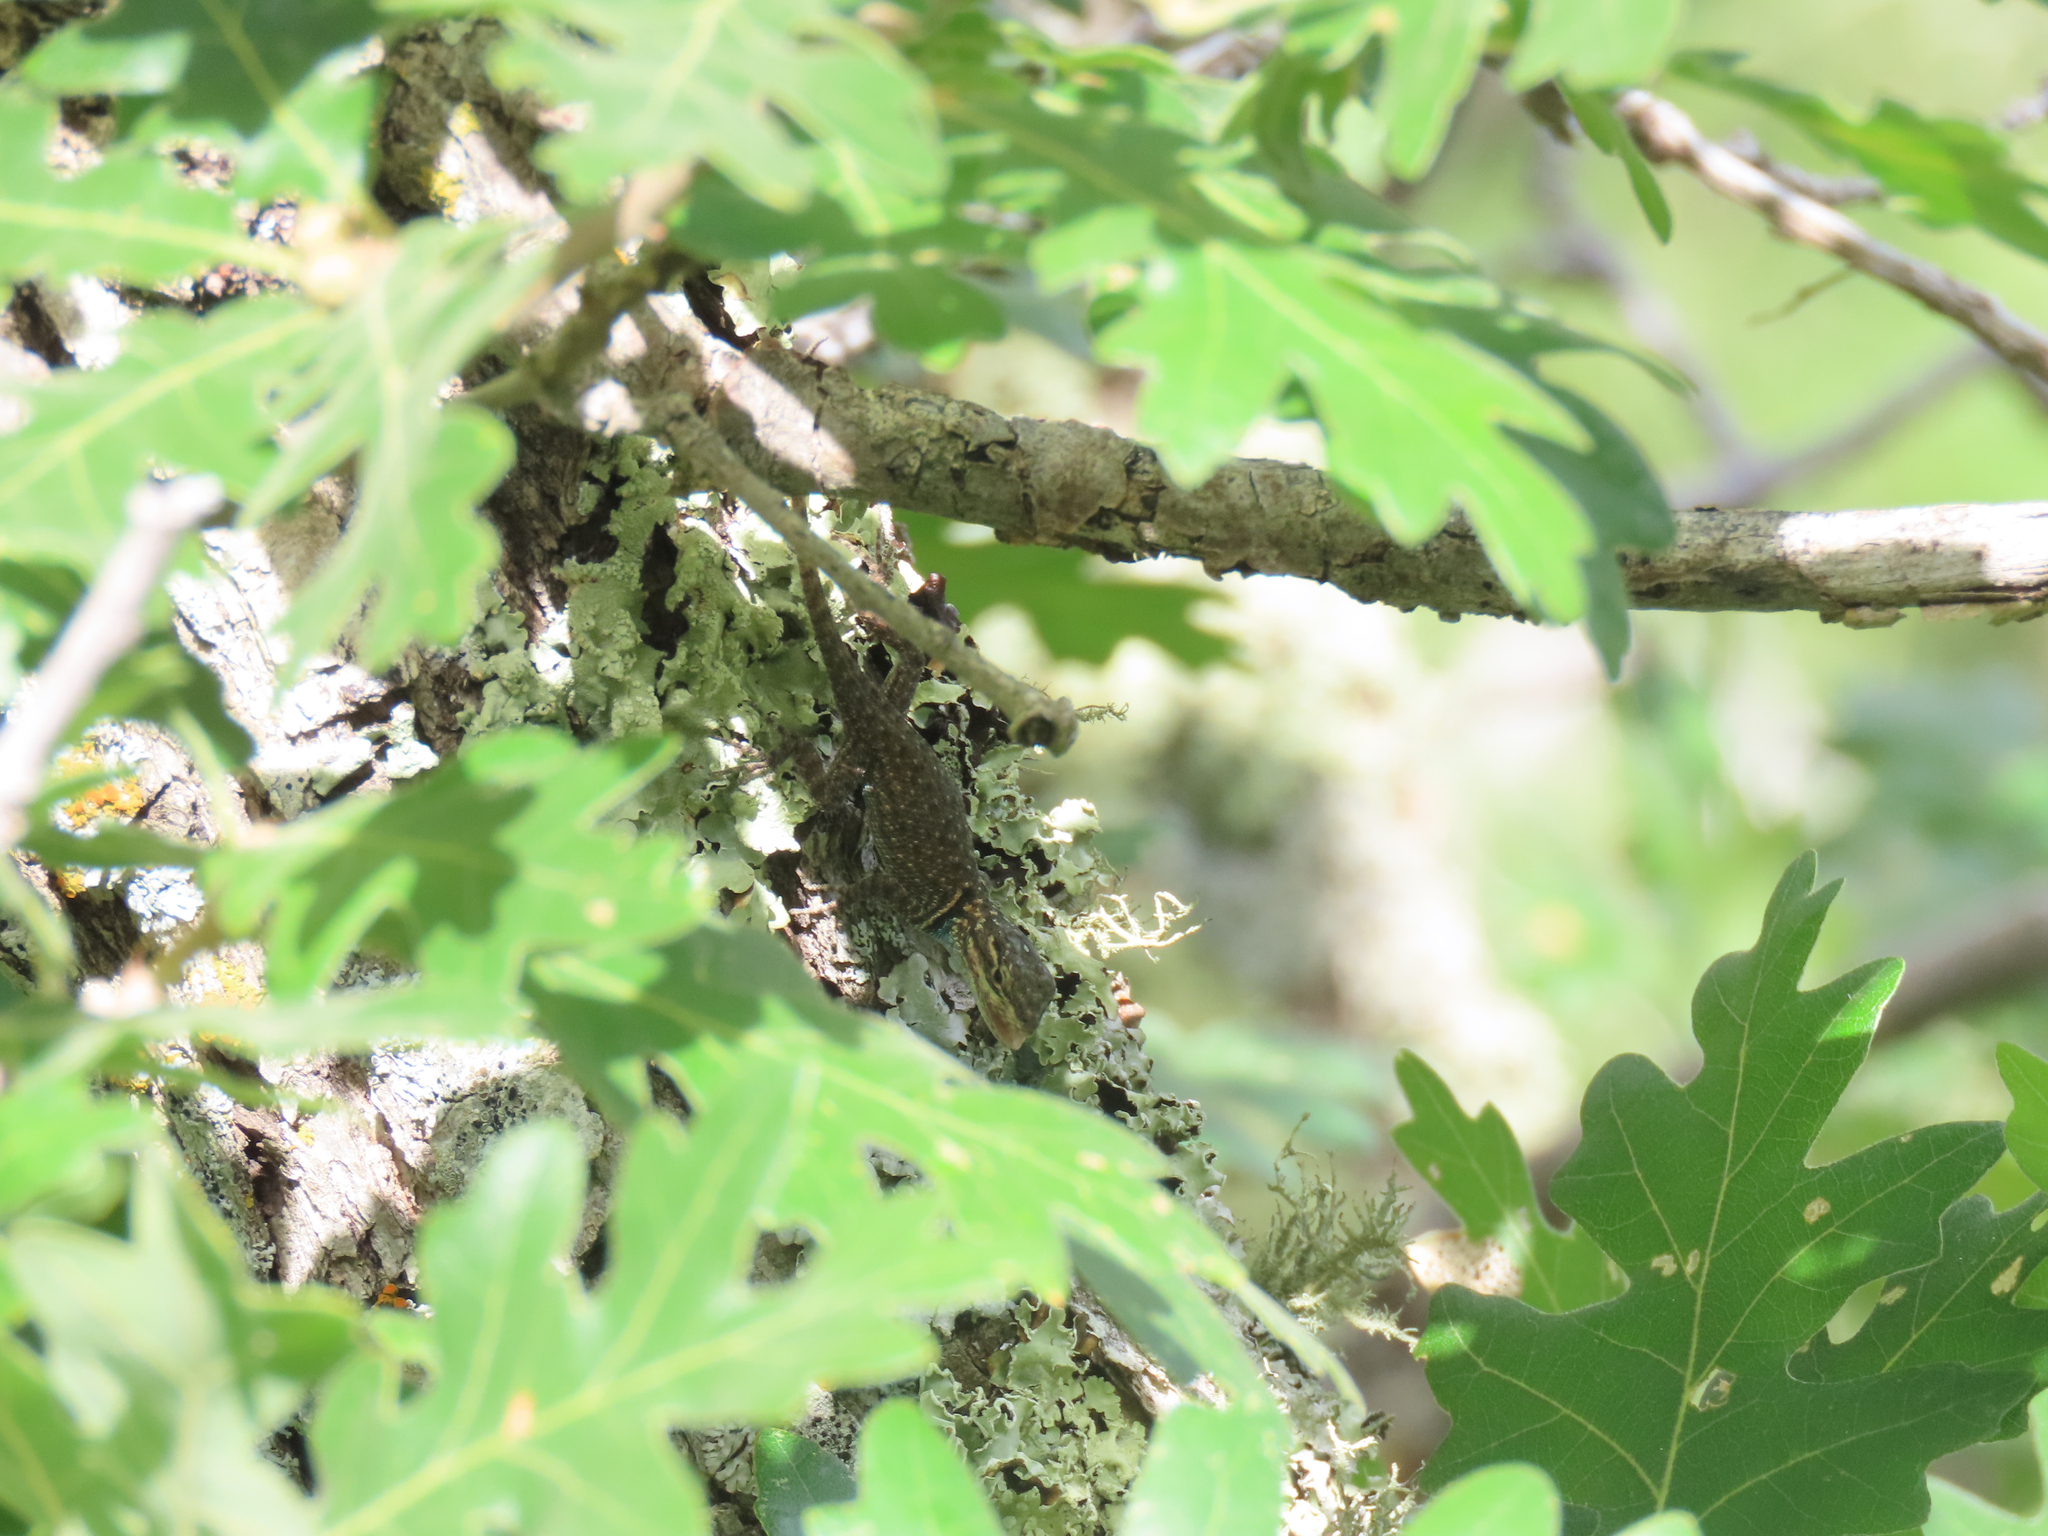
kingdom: Animalia
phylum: Chordata
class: Squamata
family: Phrynosomatidae
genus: Sceloporus
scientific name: Sceloporus jarrovii
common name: Yarrow's spiny lizard
